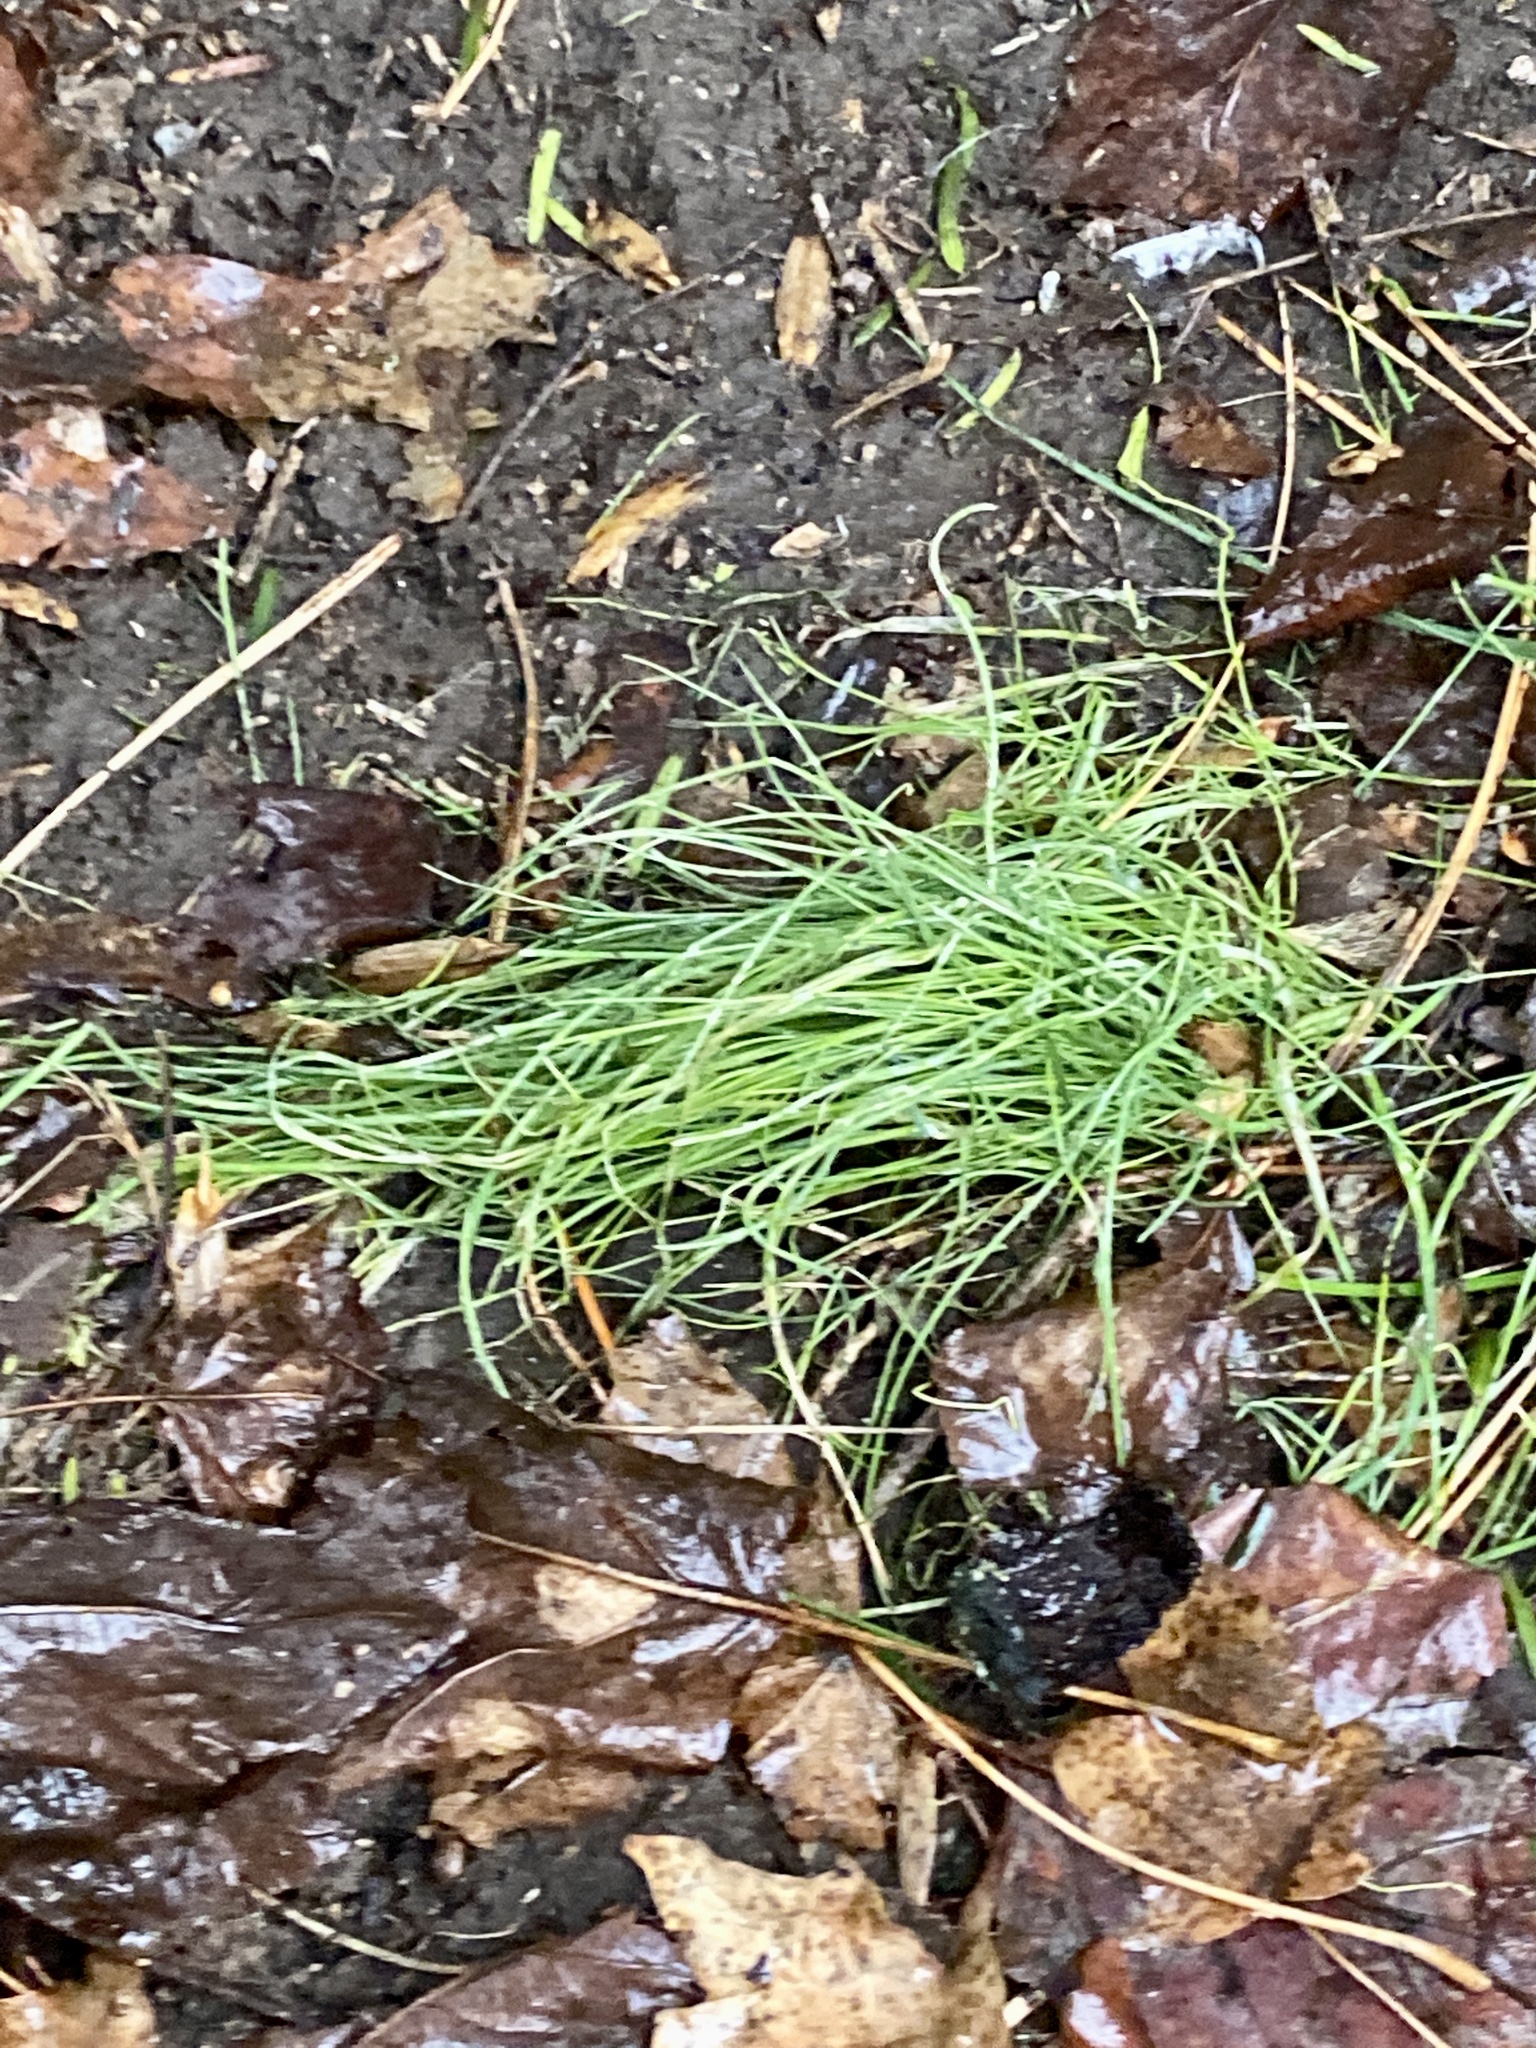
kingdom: Plantae
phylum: Tracheophyta
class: Liliopsida
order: Asparagales
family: Amaryllidaceae
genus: Allium
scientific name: Allium vineale
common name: Crow garlic
